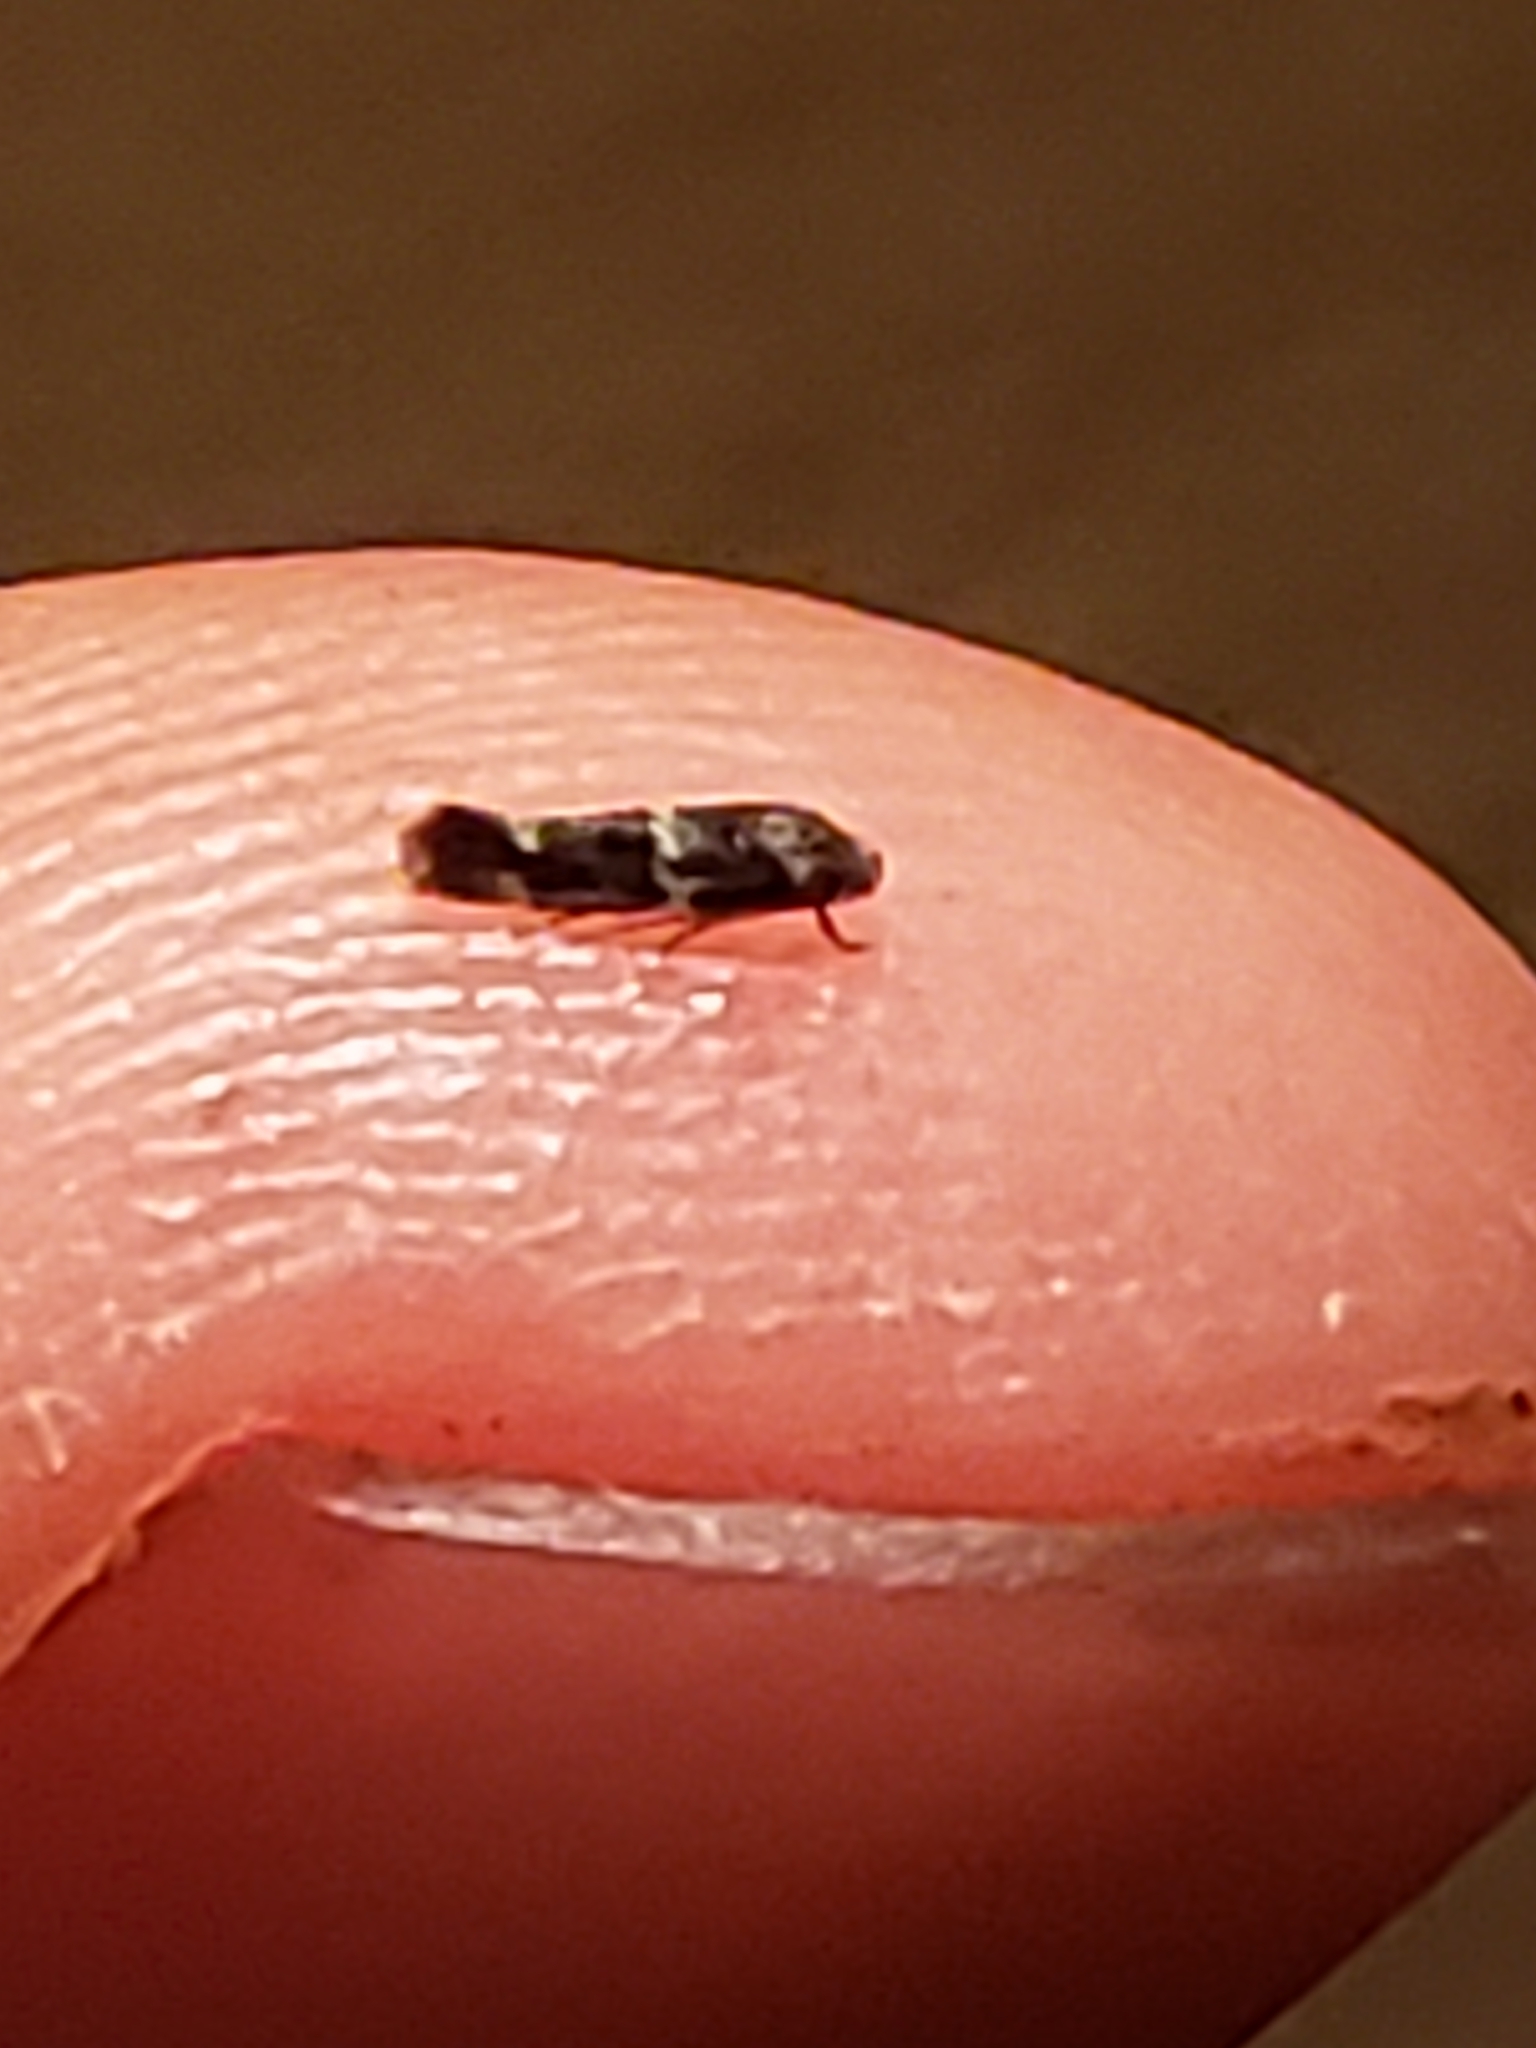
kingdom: Animalia
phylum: Arthropoda
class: Insecta
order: Lepidoptera
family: Elachistidae
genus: Elachista
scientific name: Elachista illectella
